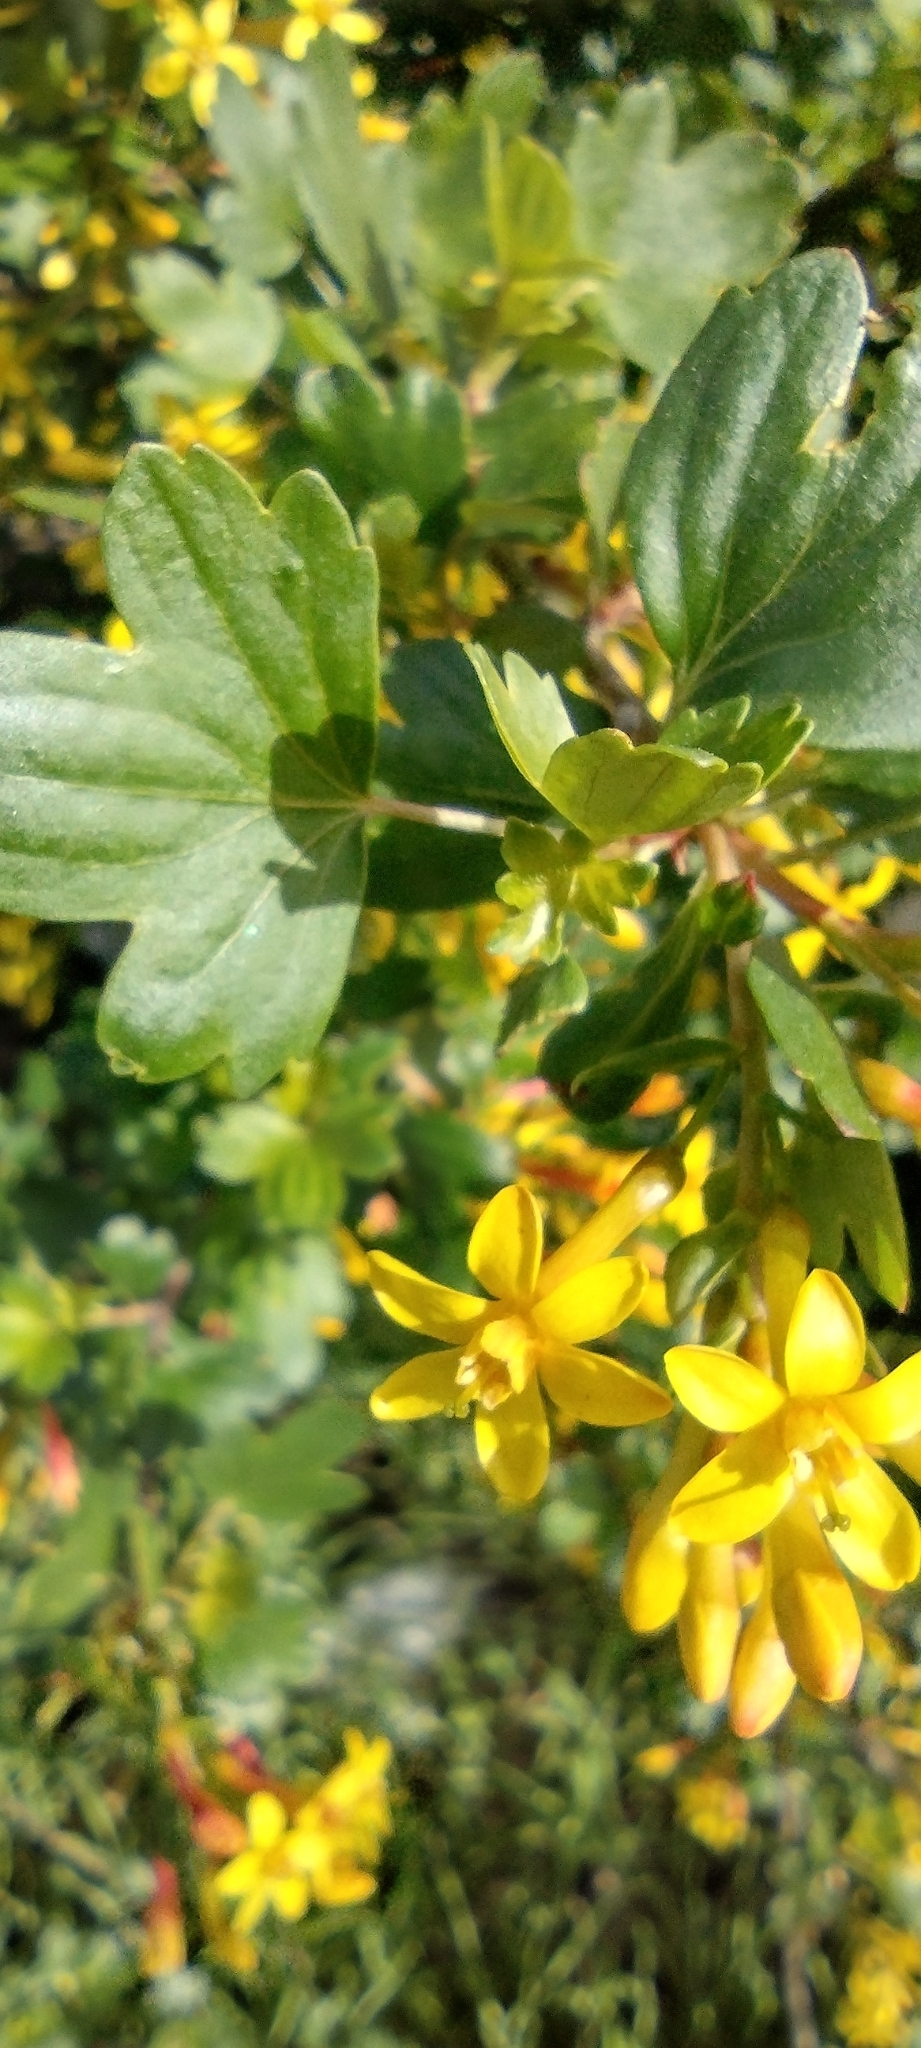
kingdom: Plantae
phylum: Tracheophyta
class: Magnoliopsida
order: Saxifragales
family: Grossulariaceae
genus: Ribes
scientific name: Ribes aureum
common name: Golden currant
